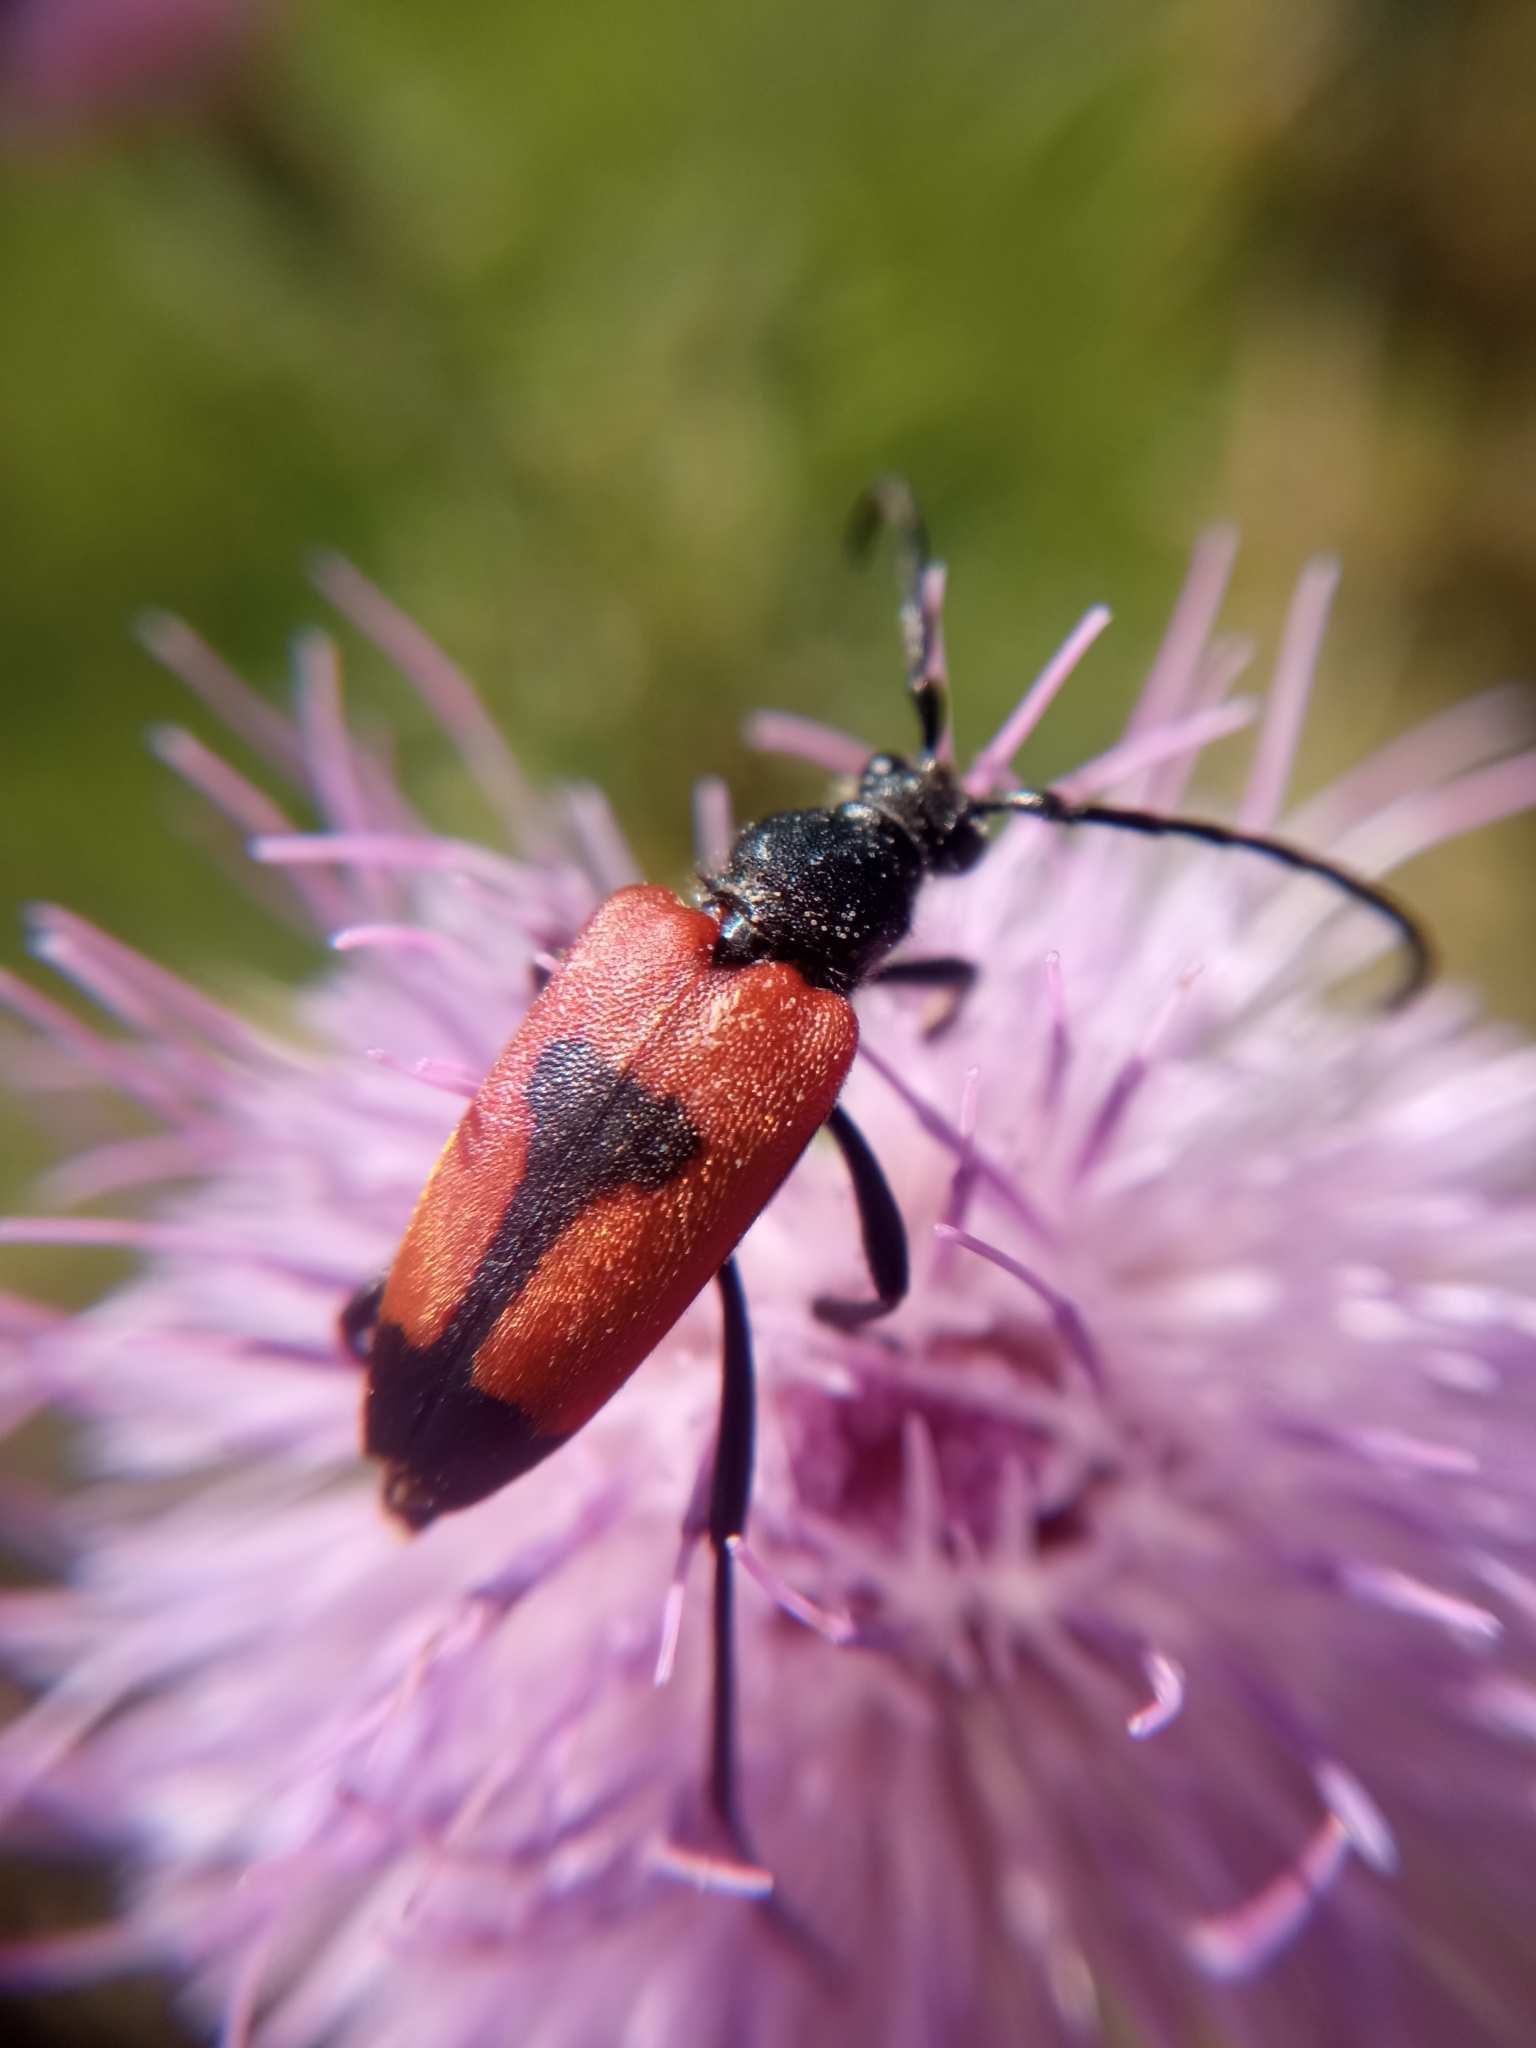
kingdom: Animalia
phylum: Arthropoda
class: Insecta
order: Coleoptera
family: Cerambycidae
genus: Stictoleptura
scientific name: Stictoleptura cordigera
